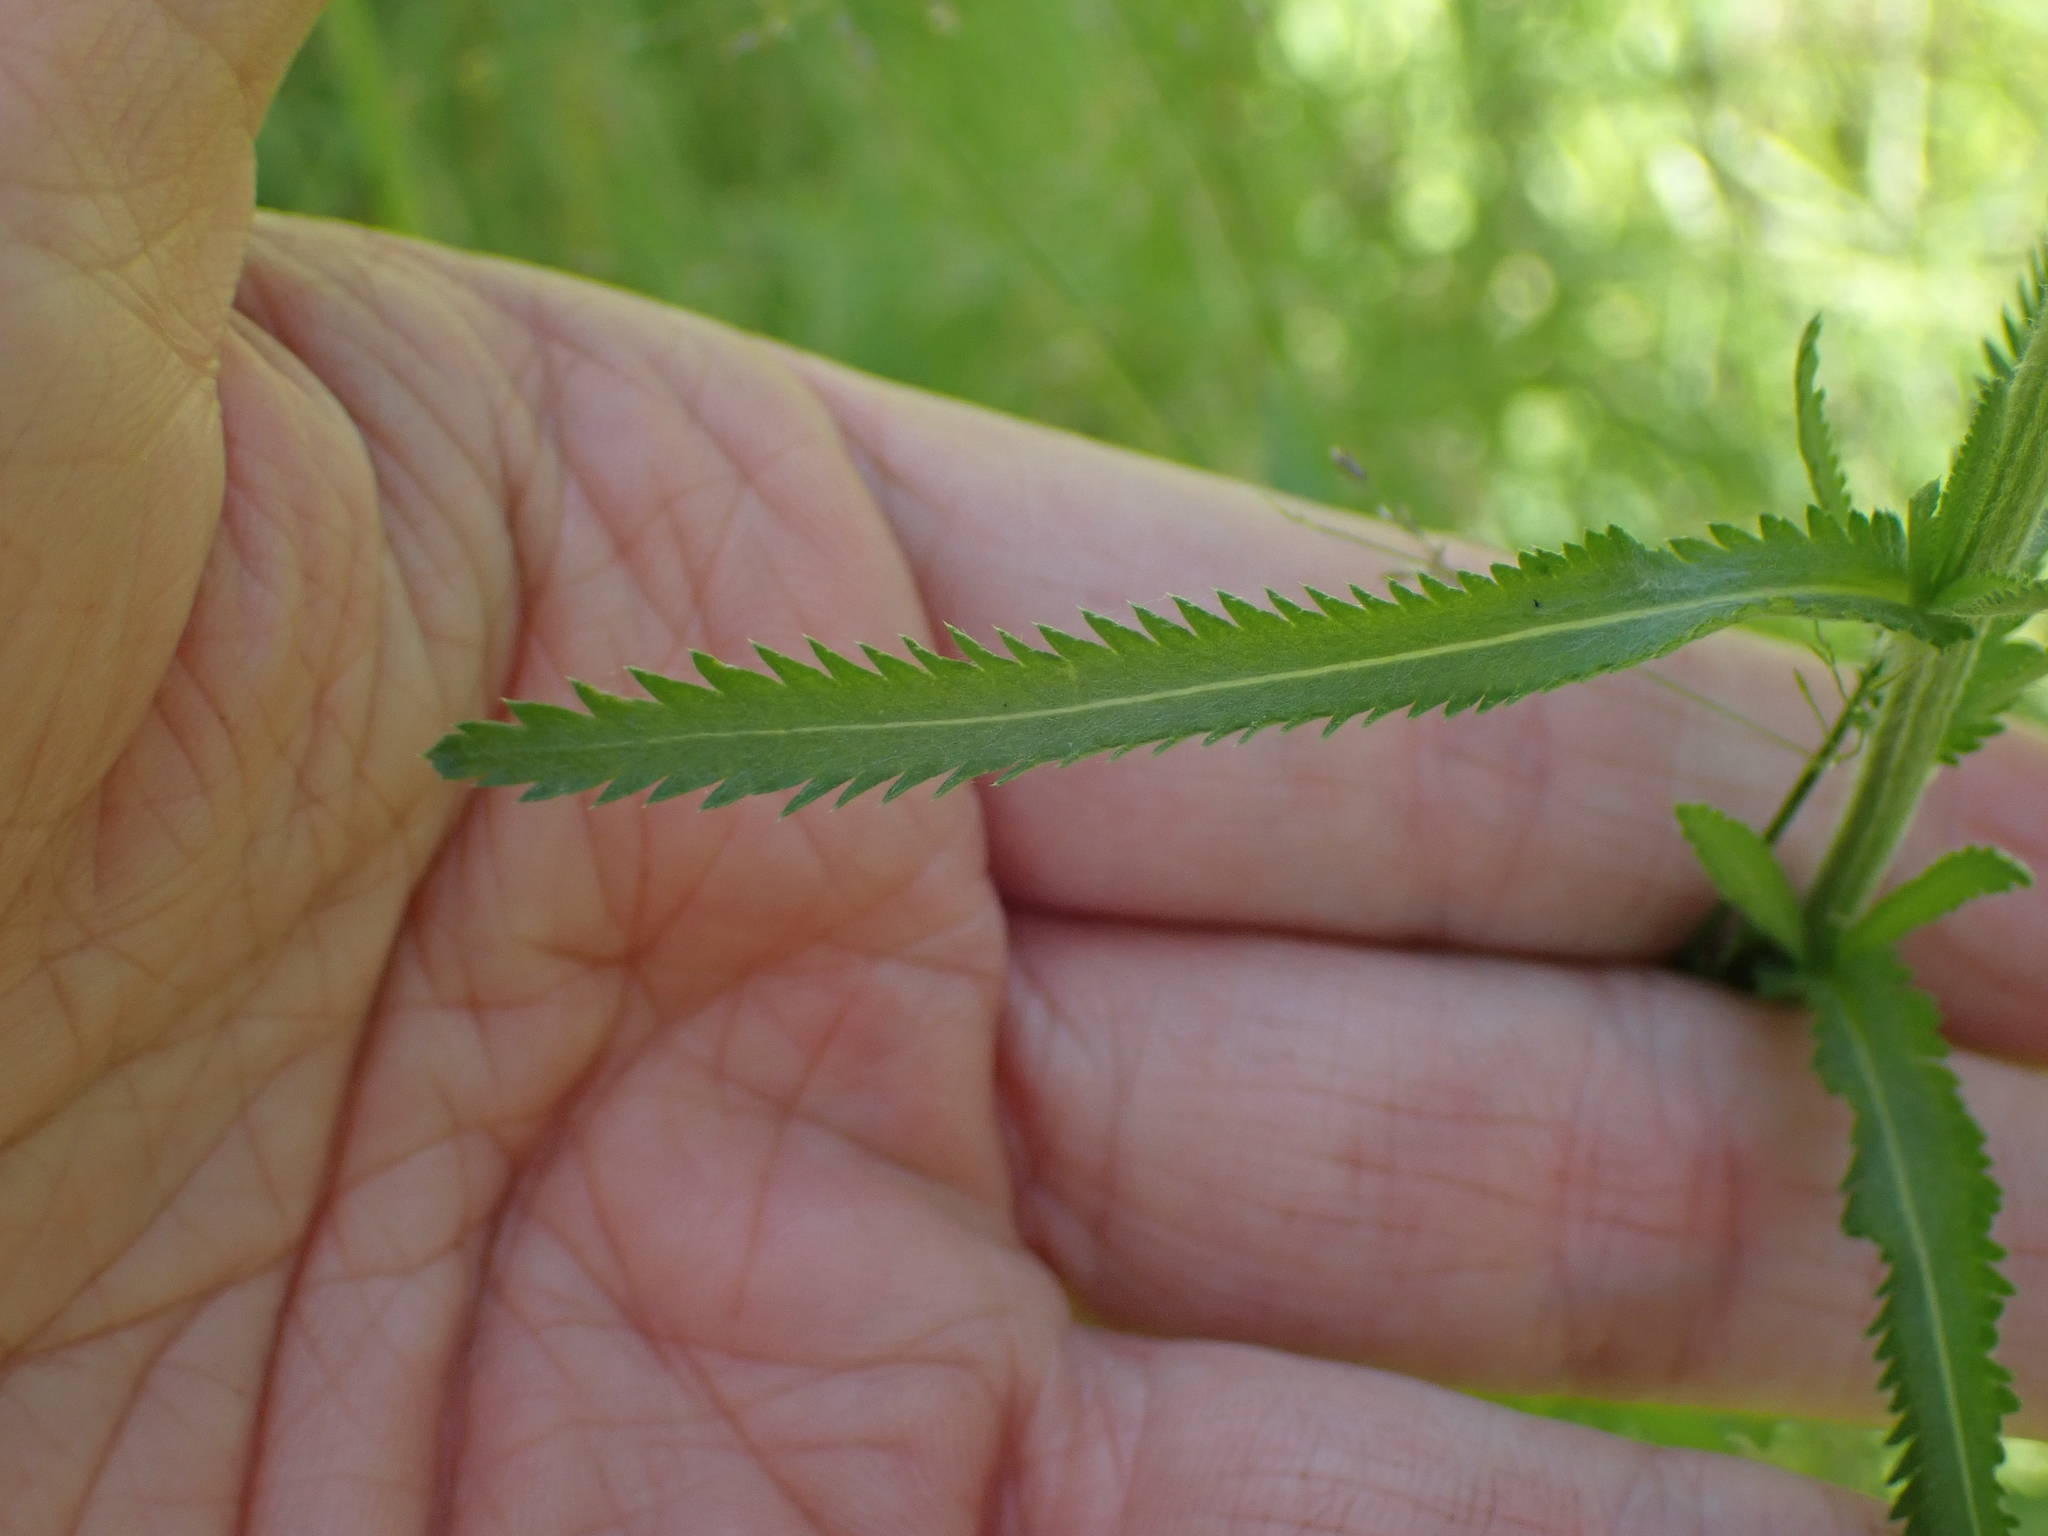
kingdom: Plantae
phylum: Tracheophyta
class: Magnoliopsida
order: Asterales
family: Asteraceae
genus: Achillea
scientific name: Achillea alpina
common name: Siberian yarrow
